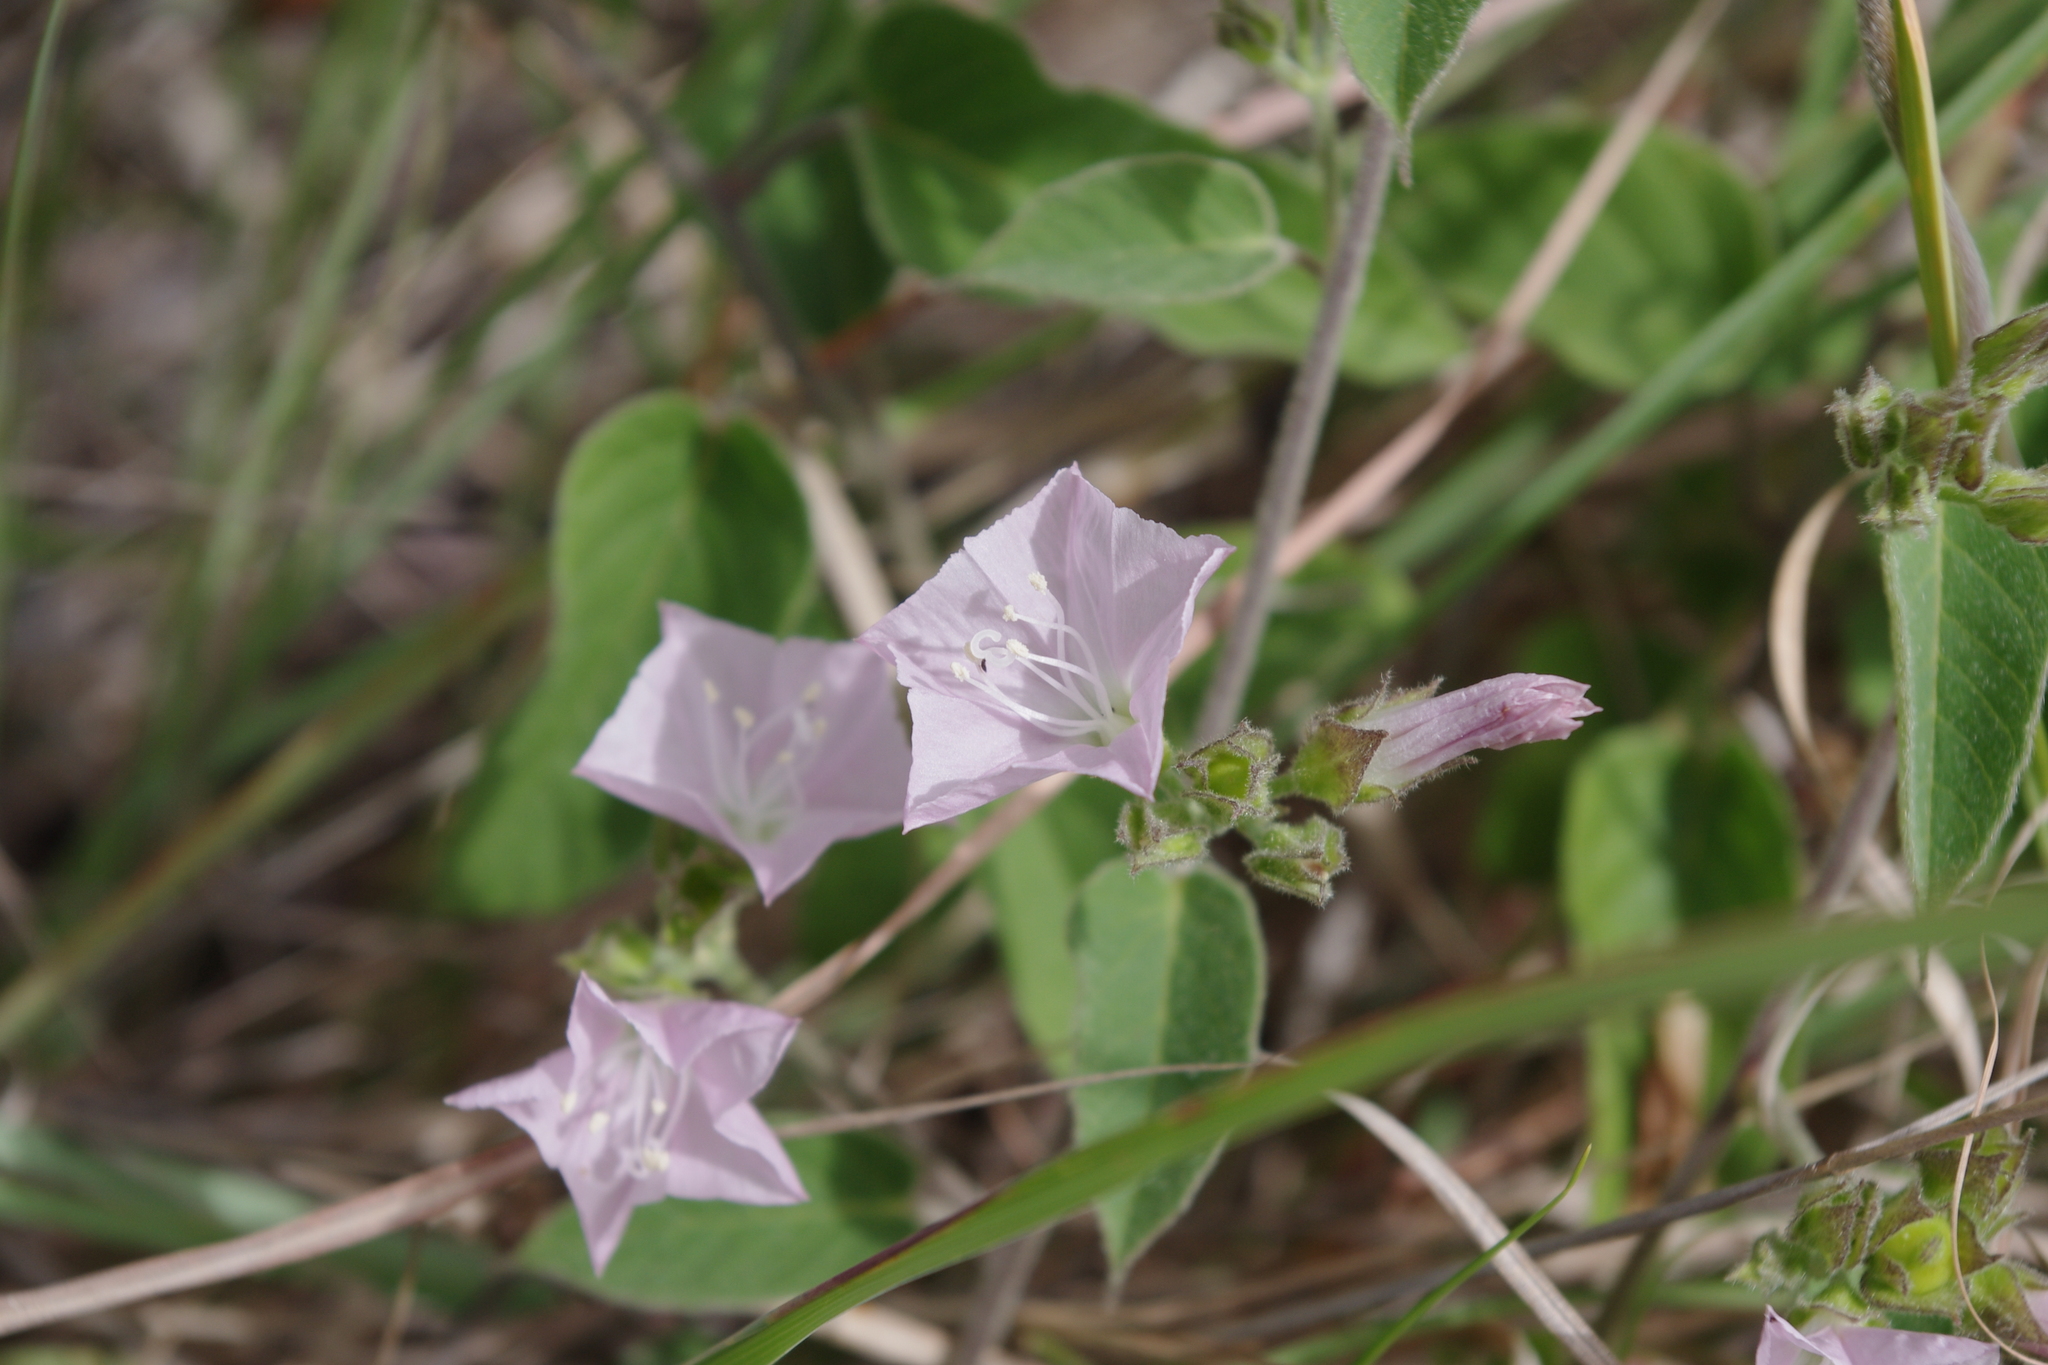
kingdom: Plantae
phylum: Tracheophyta
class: Magnoliopsida
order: Solanales
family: Convolvulaceae
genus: Jacquemontia
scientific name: Jacquemontia paniculata
